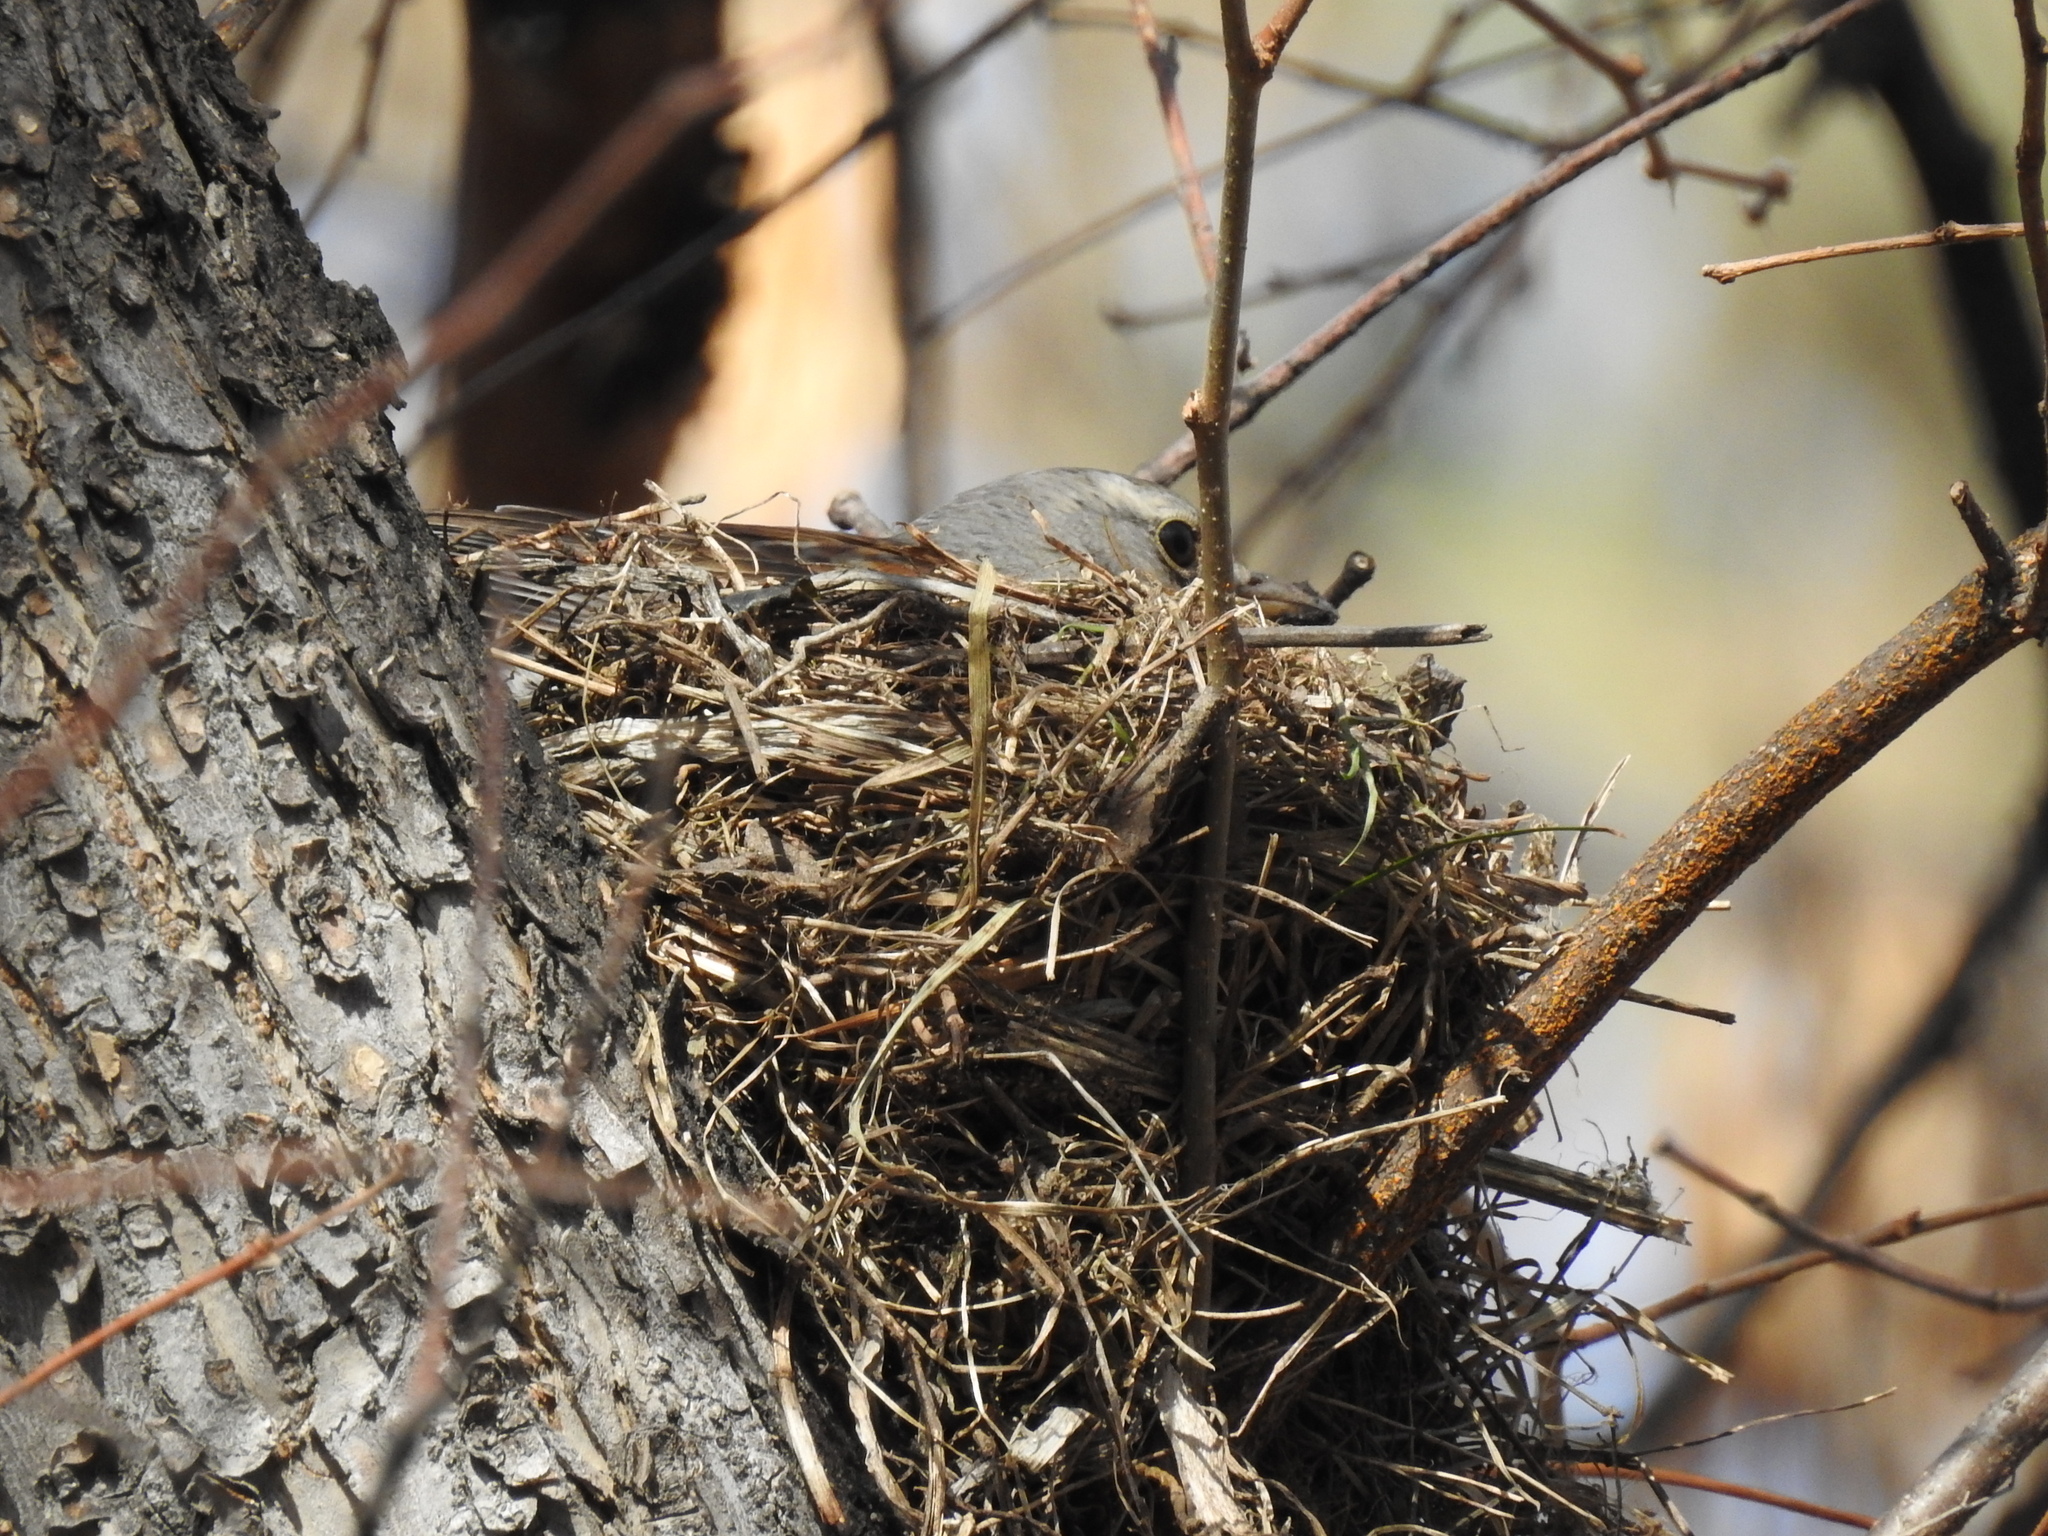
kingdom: Animalia
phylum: Chordata
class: Aves
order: Passeriformes
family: Turdidae
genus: Turdus
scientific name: Turdus pilaris
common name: Fieldfare
